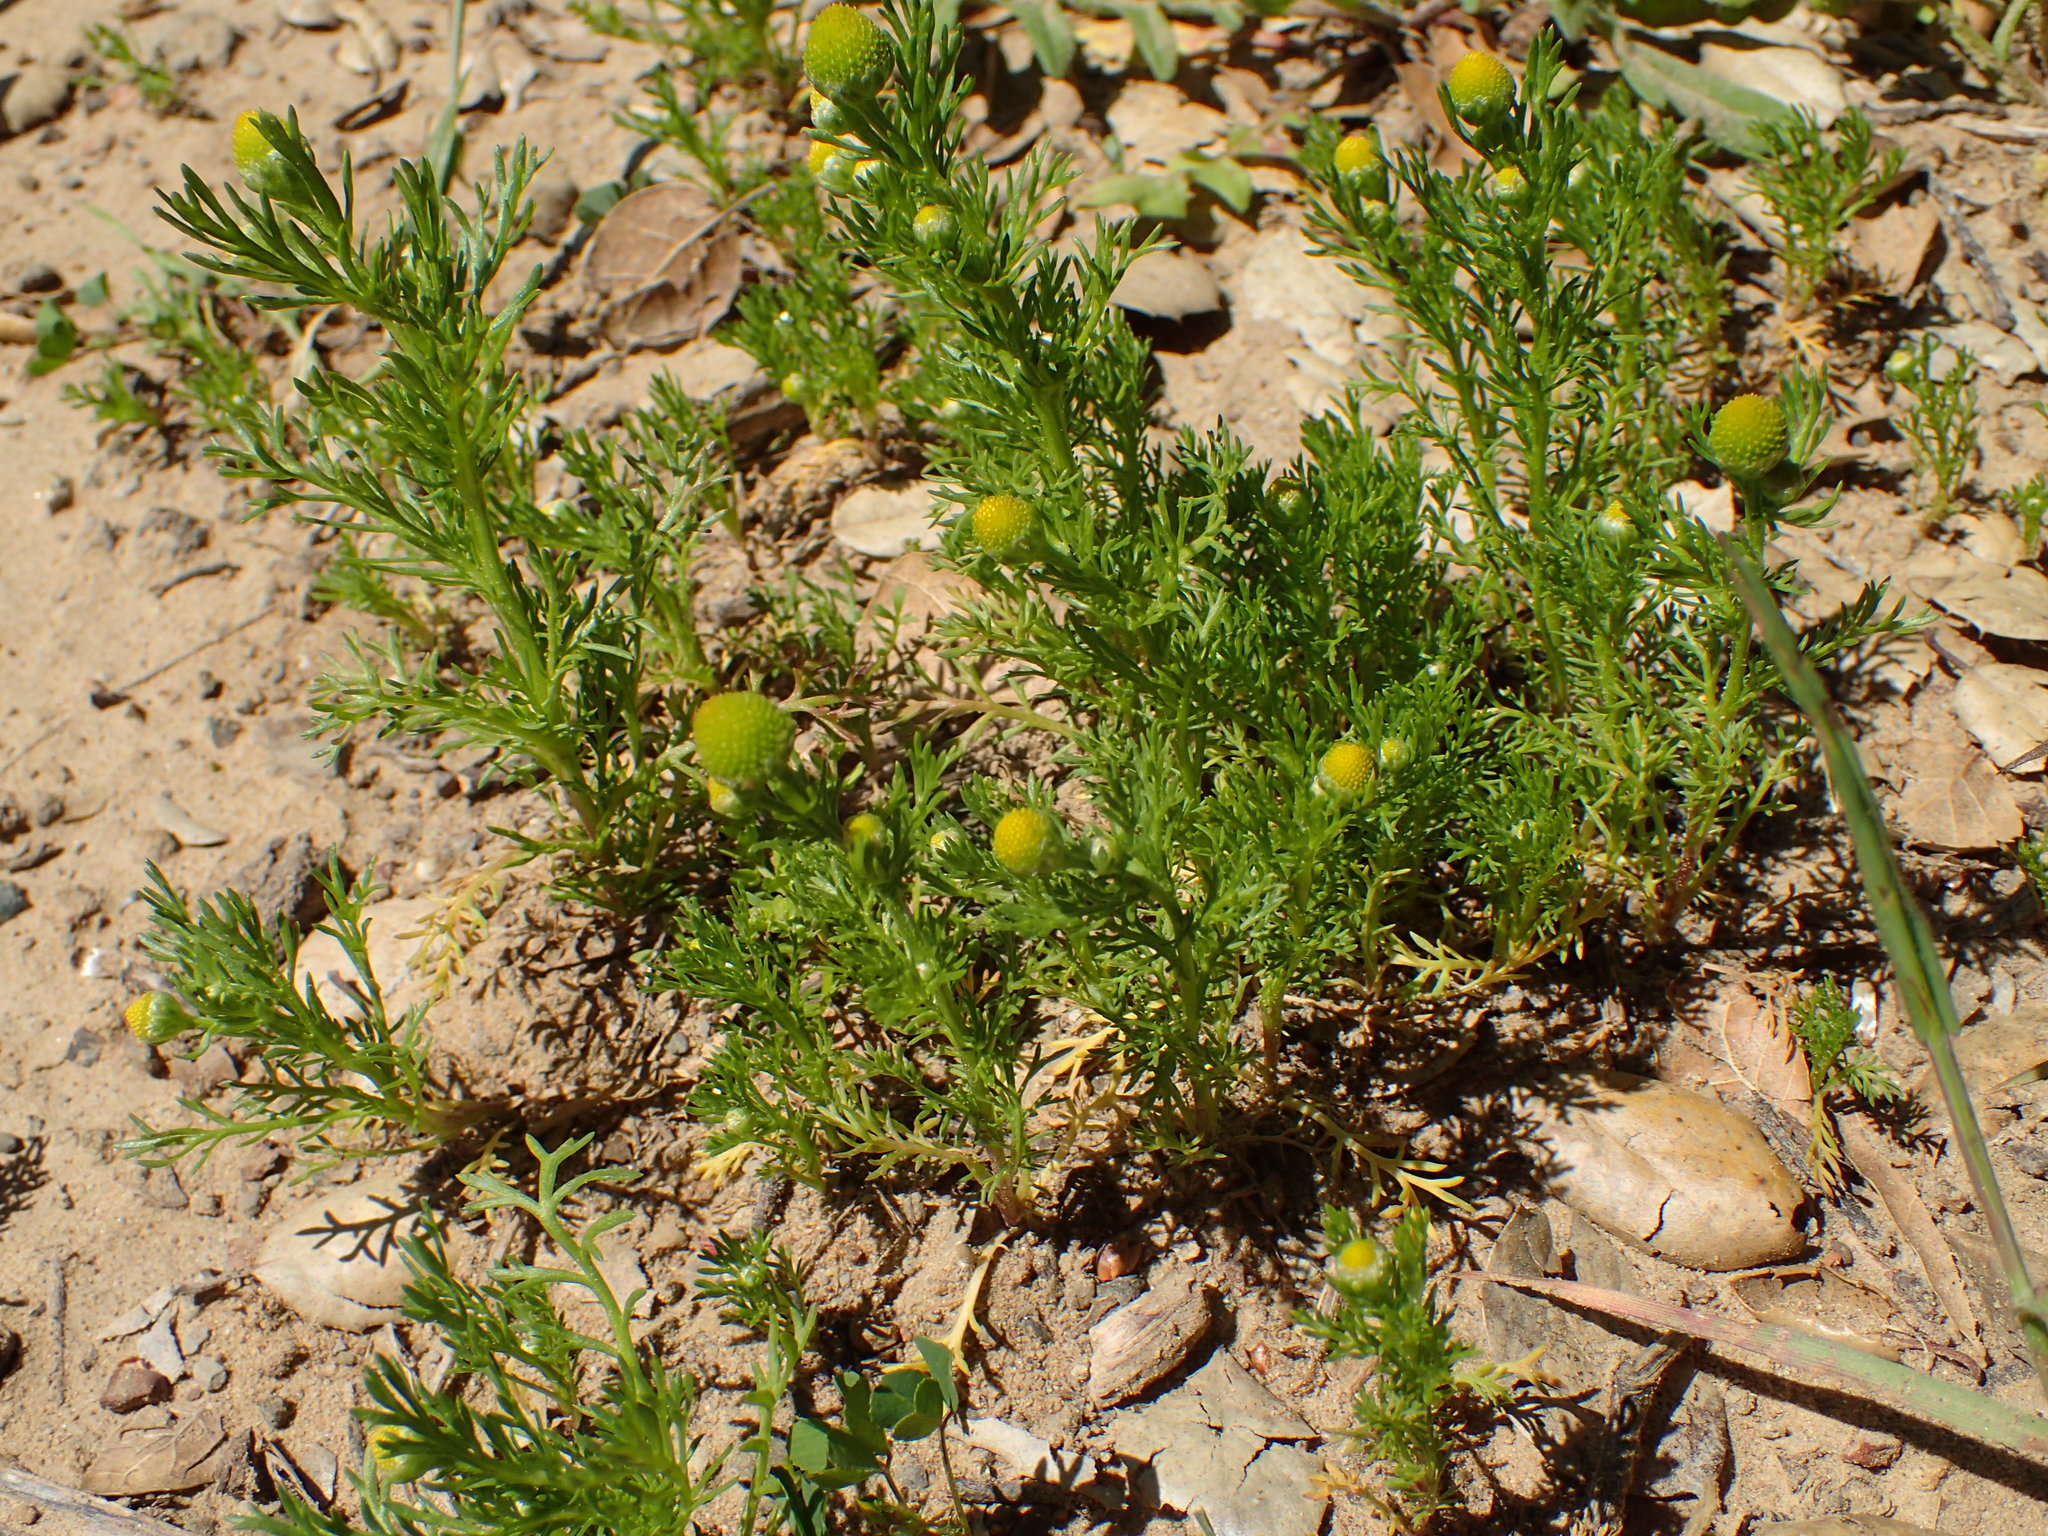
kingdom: Plantae
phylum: Tracheophyta
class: Magnoliopsida
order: Asterales
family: Asteraceae
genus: Matricaria
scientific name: Matricaria discoidea
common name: Disc mayweed
